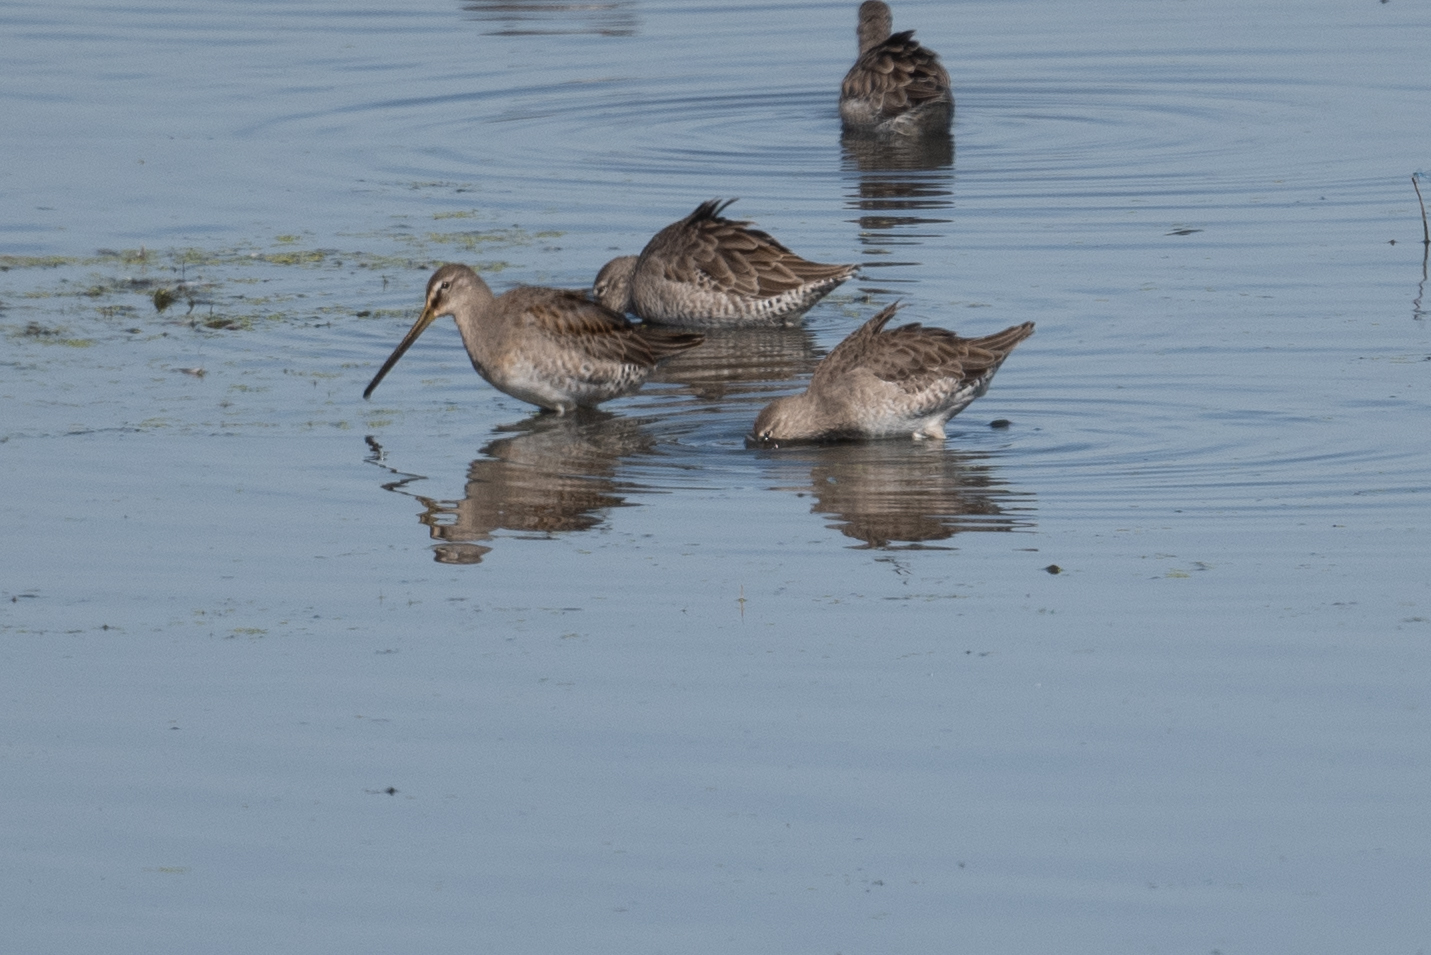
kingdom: Animalia
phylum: Chordata
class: Aves
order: Charadriiformes
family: Scolopacidae
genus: Limnodromus
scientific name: Limnodromus scolopaceus
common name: Long-billed dowitcher
